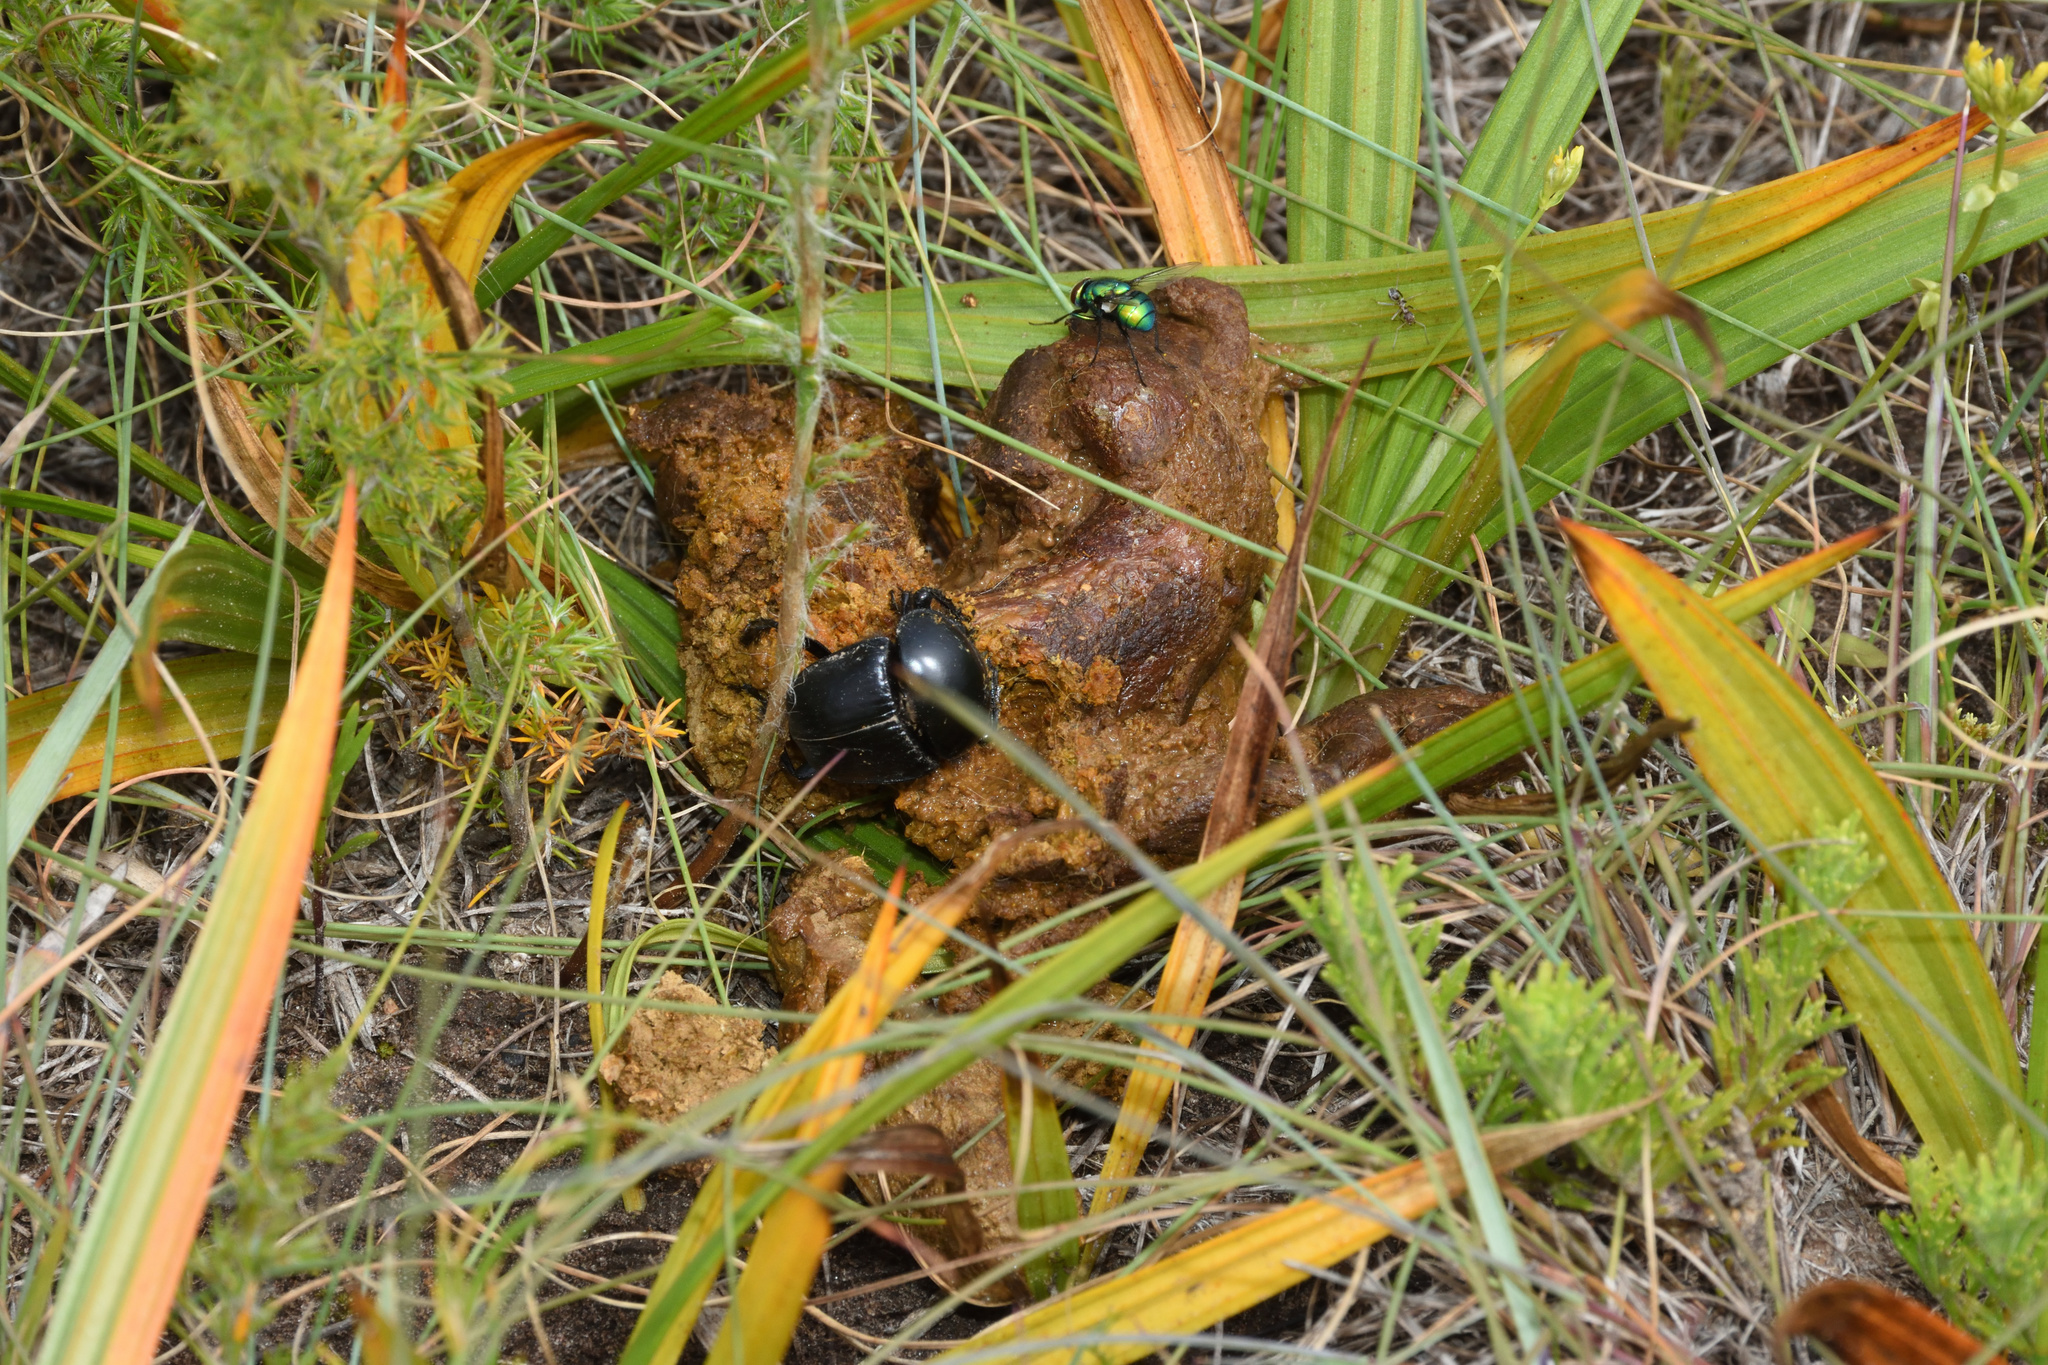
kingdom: Animalia
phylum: Arthropoda
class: Insecta
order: Coleoptera
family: Scarabaeidae
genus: Scarabaeus
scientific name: Scarabaeus convexus
